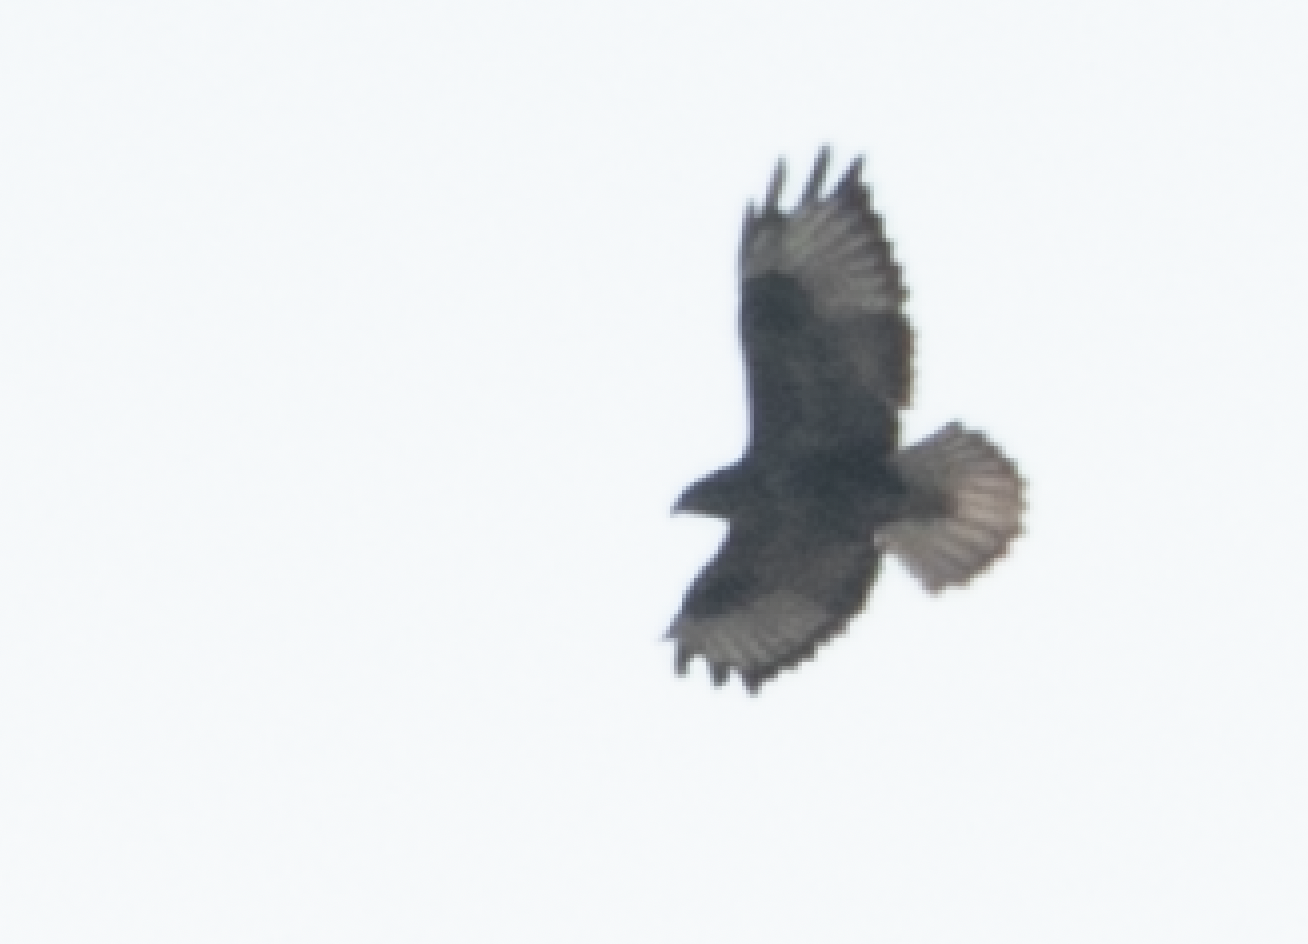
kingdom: Animalia
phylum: Chordata
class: Aves
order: Accipitriformes
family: Accipitridae
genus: Buteo
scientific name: Buteo buteo
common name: Common buzzard
